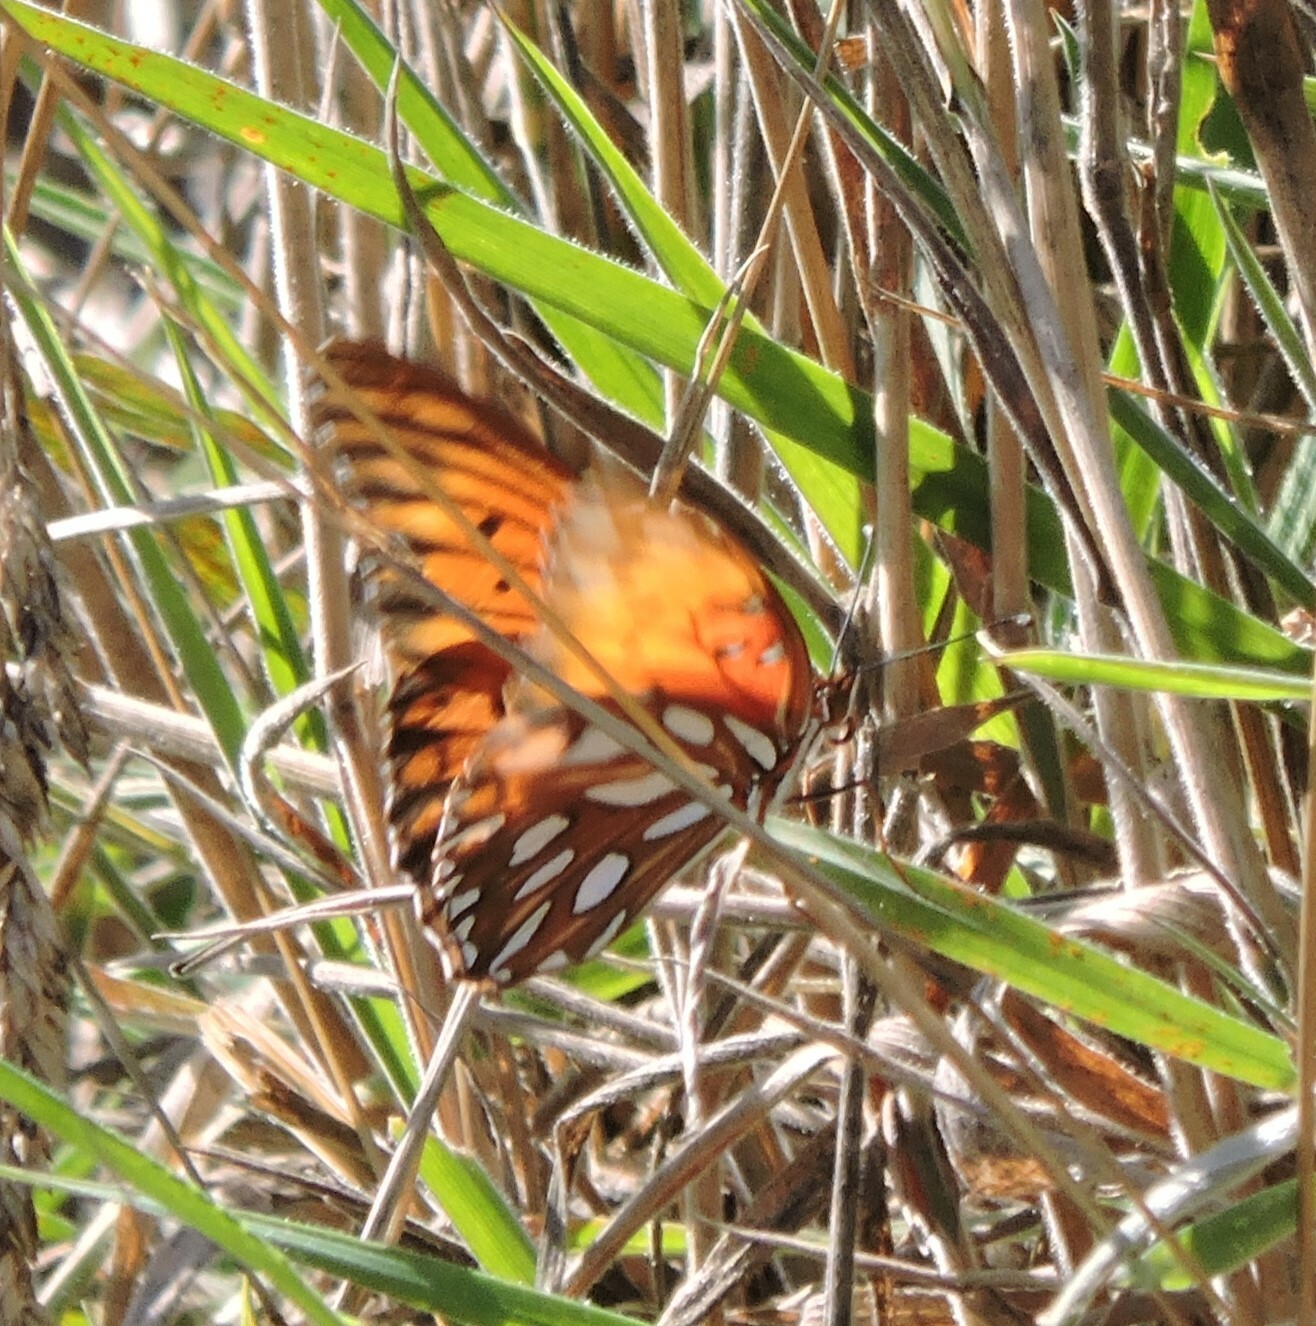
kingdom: Animalia
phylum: Arthropoda
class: Insecta
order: Lepidoptera
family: Nymphalidae
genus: Dione
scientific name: Dione vanillae
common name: Gulf fritillary
